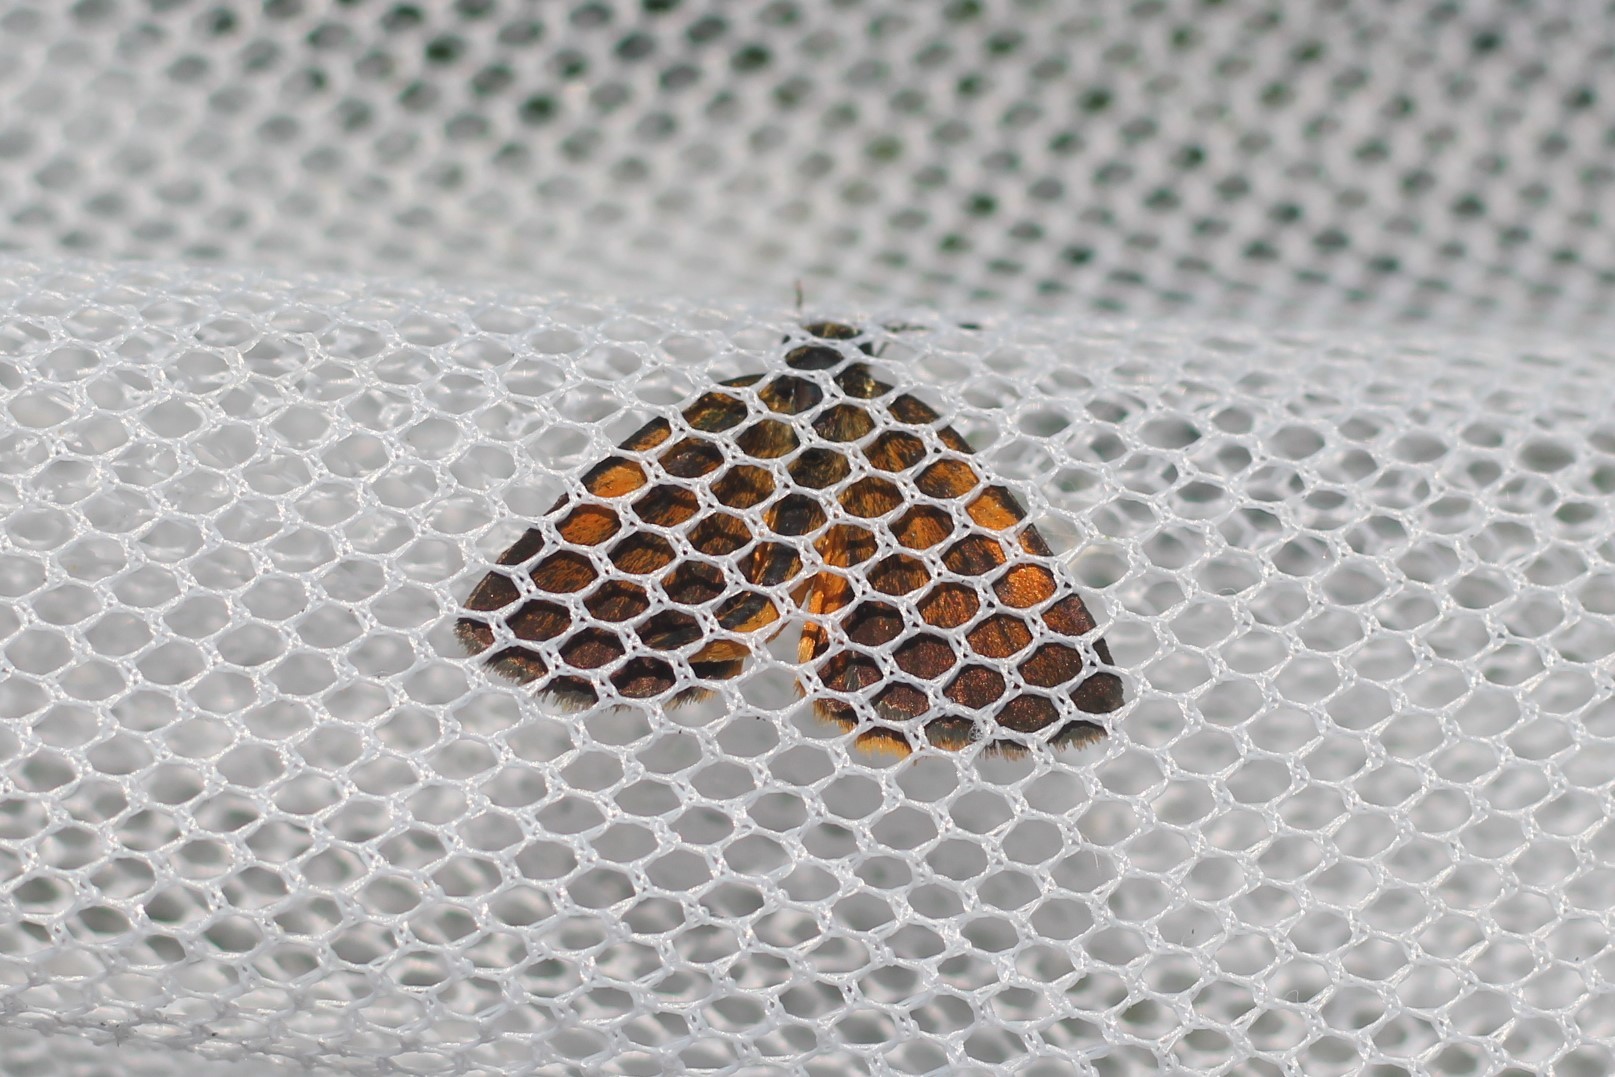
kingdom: Animalia
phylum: Arthropoda
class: Insecta
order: Lepidoptera
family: Hesperiidae
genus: Ancyloxypha
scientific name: Ancyloxypha numitor
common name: Least skipper
